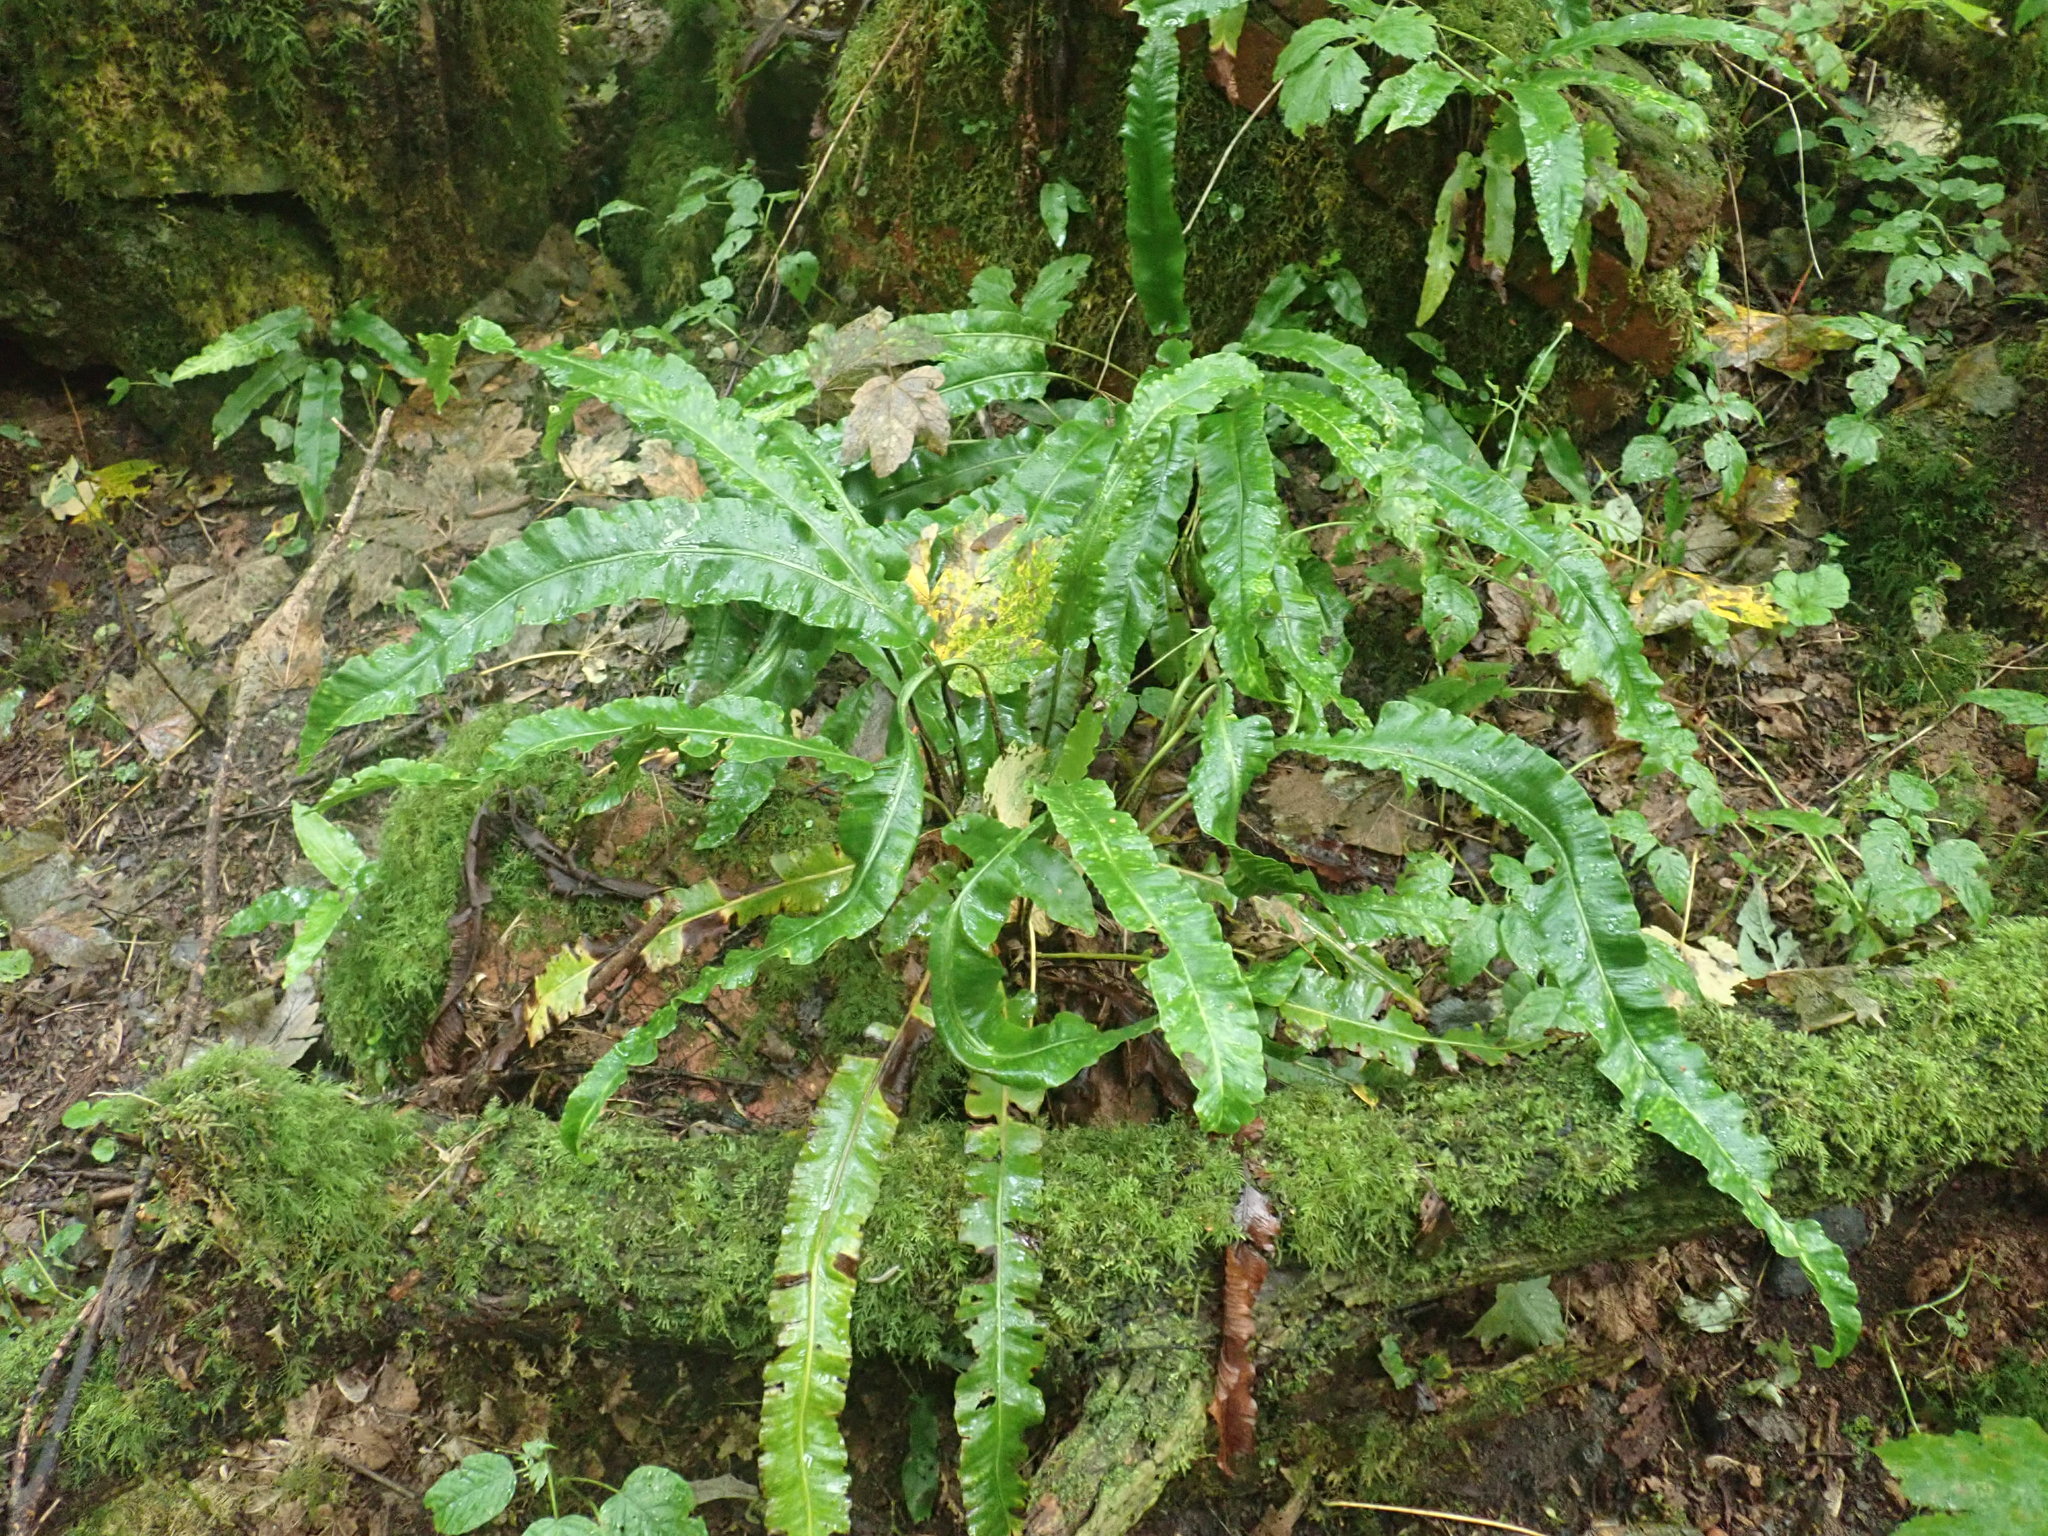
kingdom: Plantae
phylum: Tracheophyta
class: Polypodiopsida
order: Polypodiales
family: Aspleniaceae
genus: Asplenium
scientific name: Asplenium scolopendrium
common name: Hart's-tongue fern
